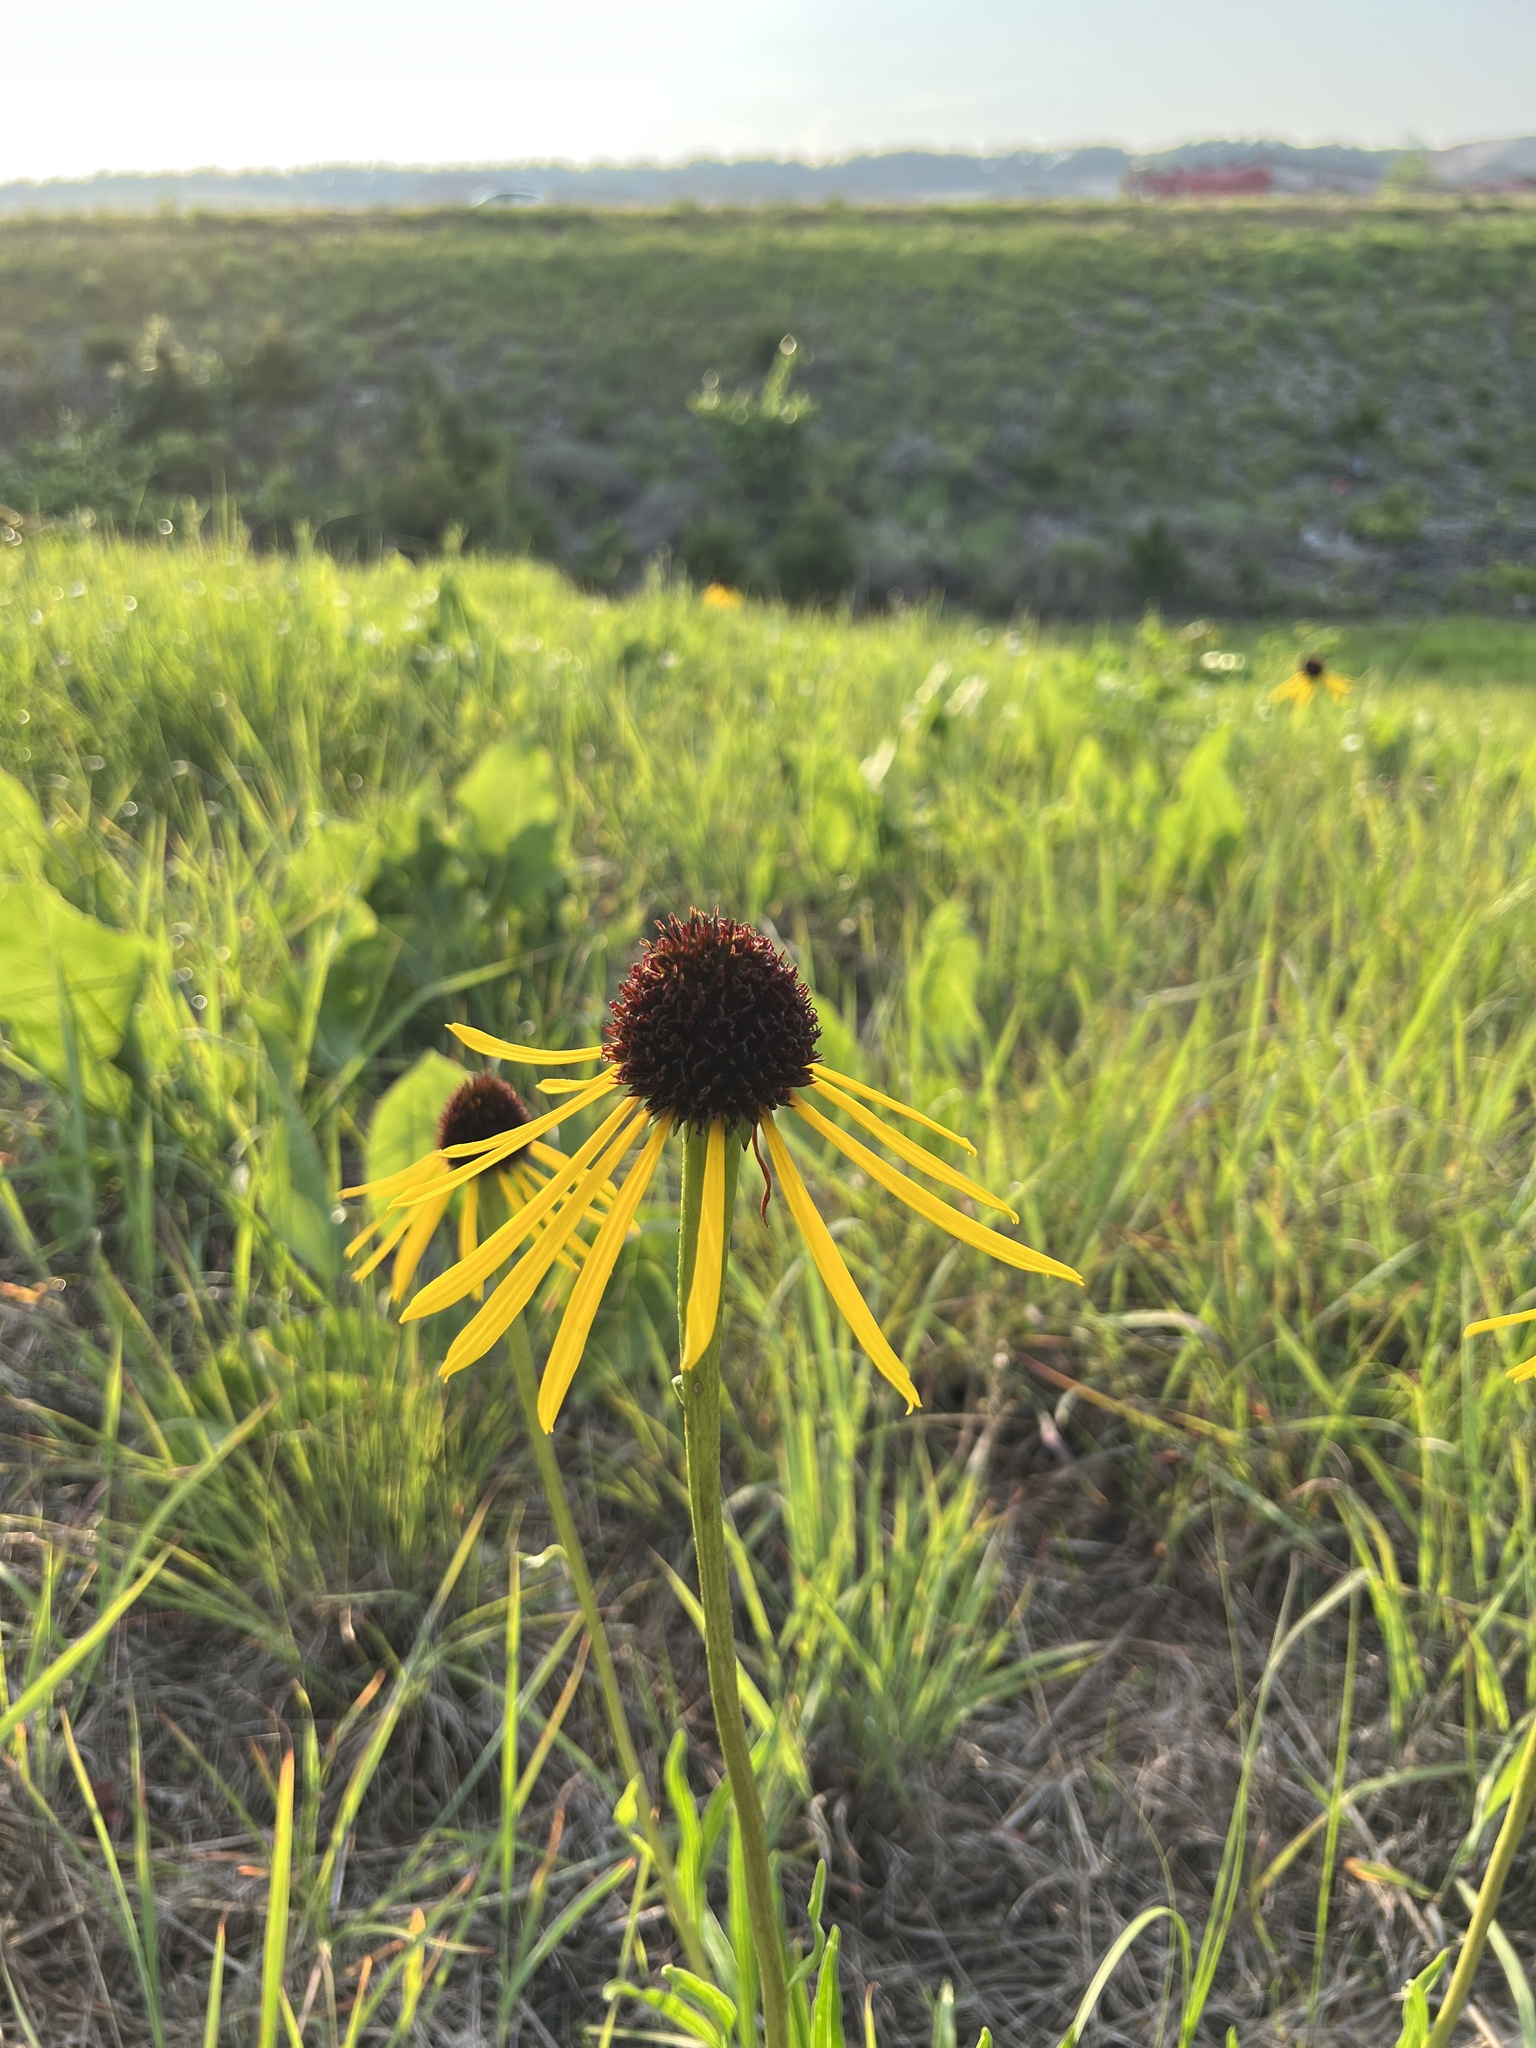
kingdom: Plantae
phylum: Tracheophyta
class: Magnoliopsida
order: Asterales
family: Asteraceae
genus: Echinacea
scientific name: Echinacea paradoxa
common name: Bush's purple-coneflower
